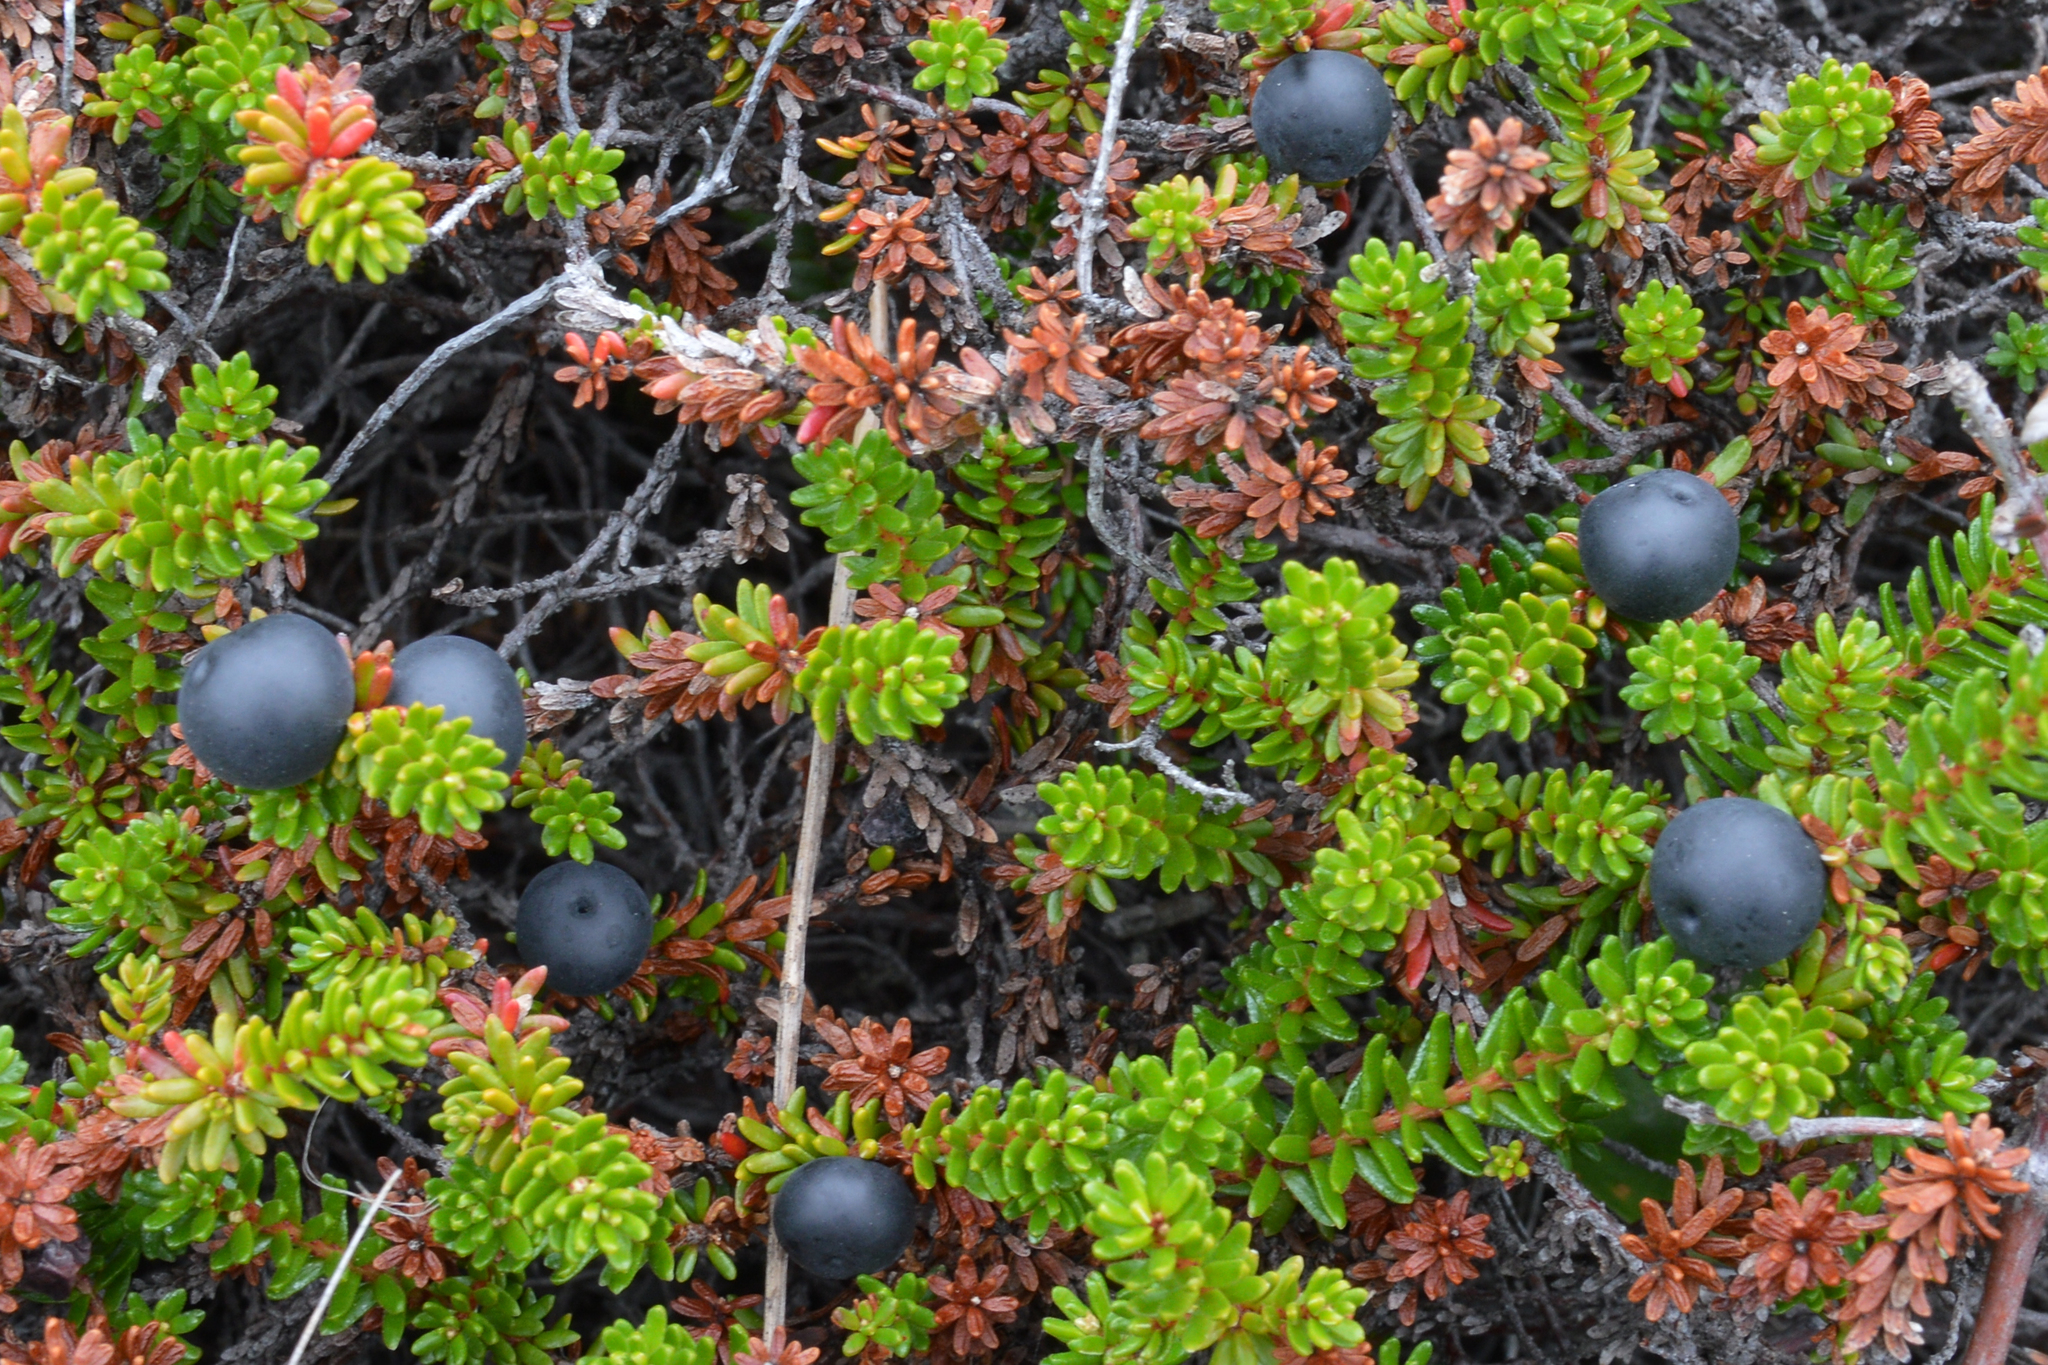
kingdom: Plantae
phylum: Tracheophyta
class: Magnoliopsida
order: Ericales
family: Ericaceae
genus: Empetrum
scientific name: Empetrum nigrum
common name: Black crowberry
